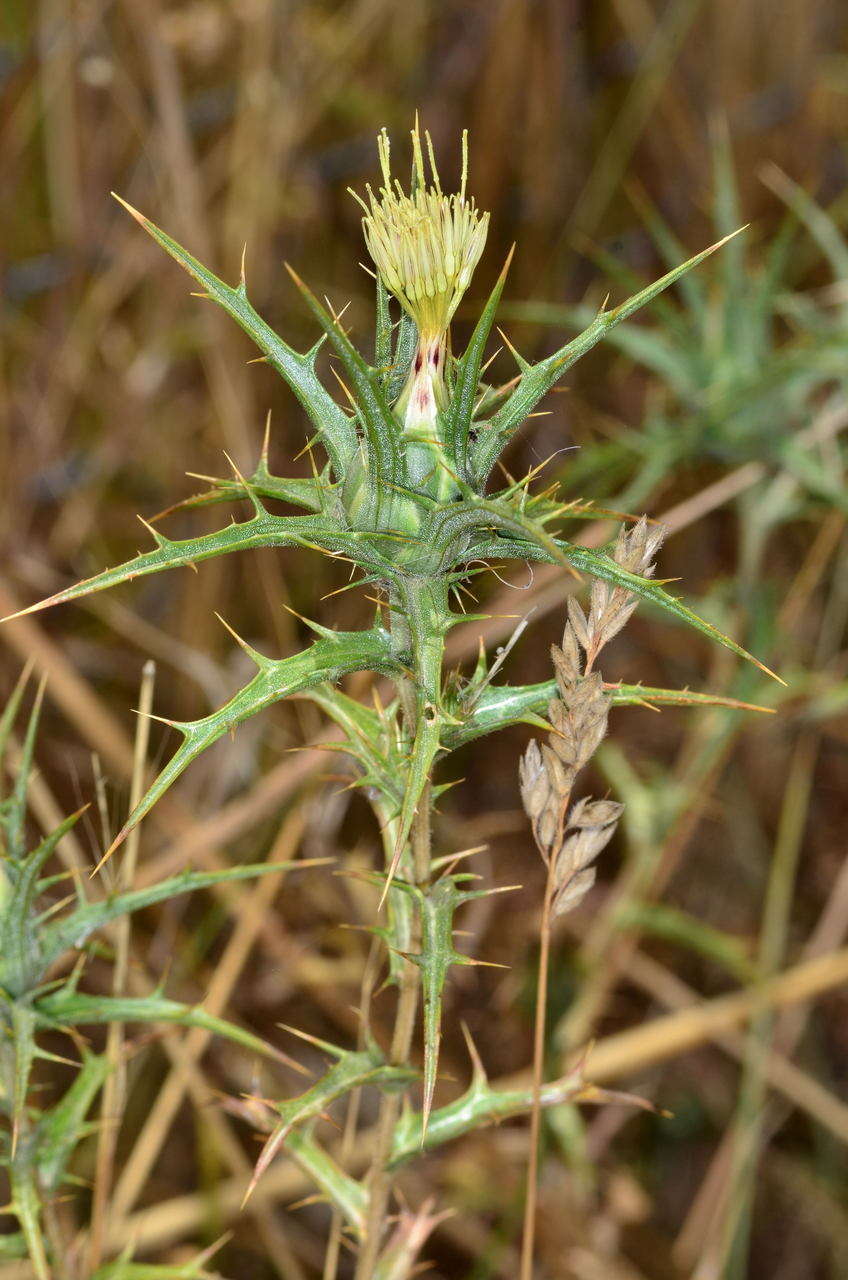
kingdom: Plantae
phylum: Tracheophyta
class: Magnoliopsida
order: Asterales
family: Asteraceae
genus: Carthamus
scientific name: Carthamus creticus
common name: Smooth distaff thistle
